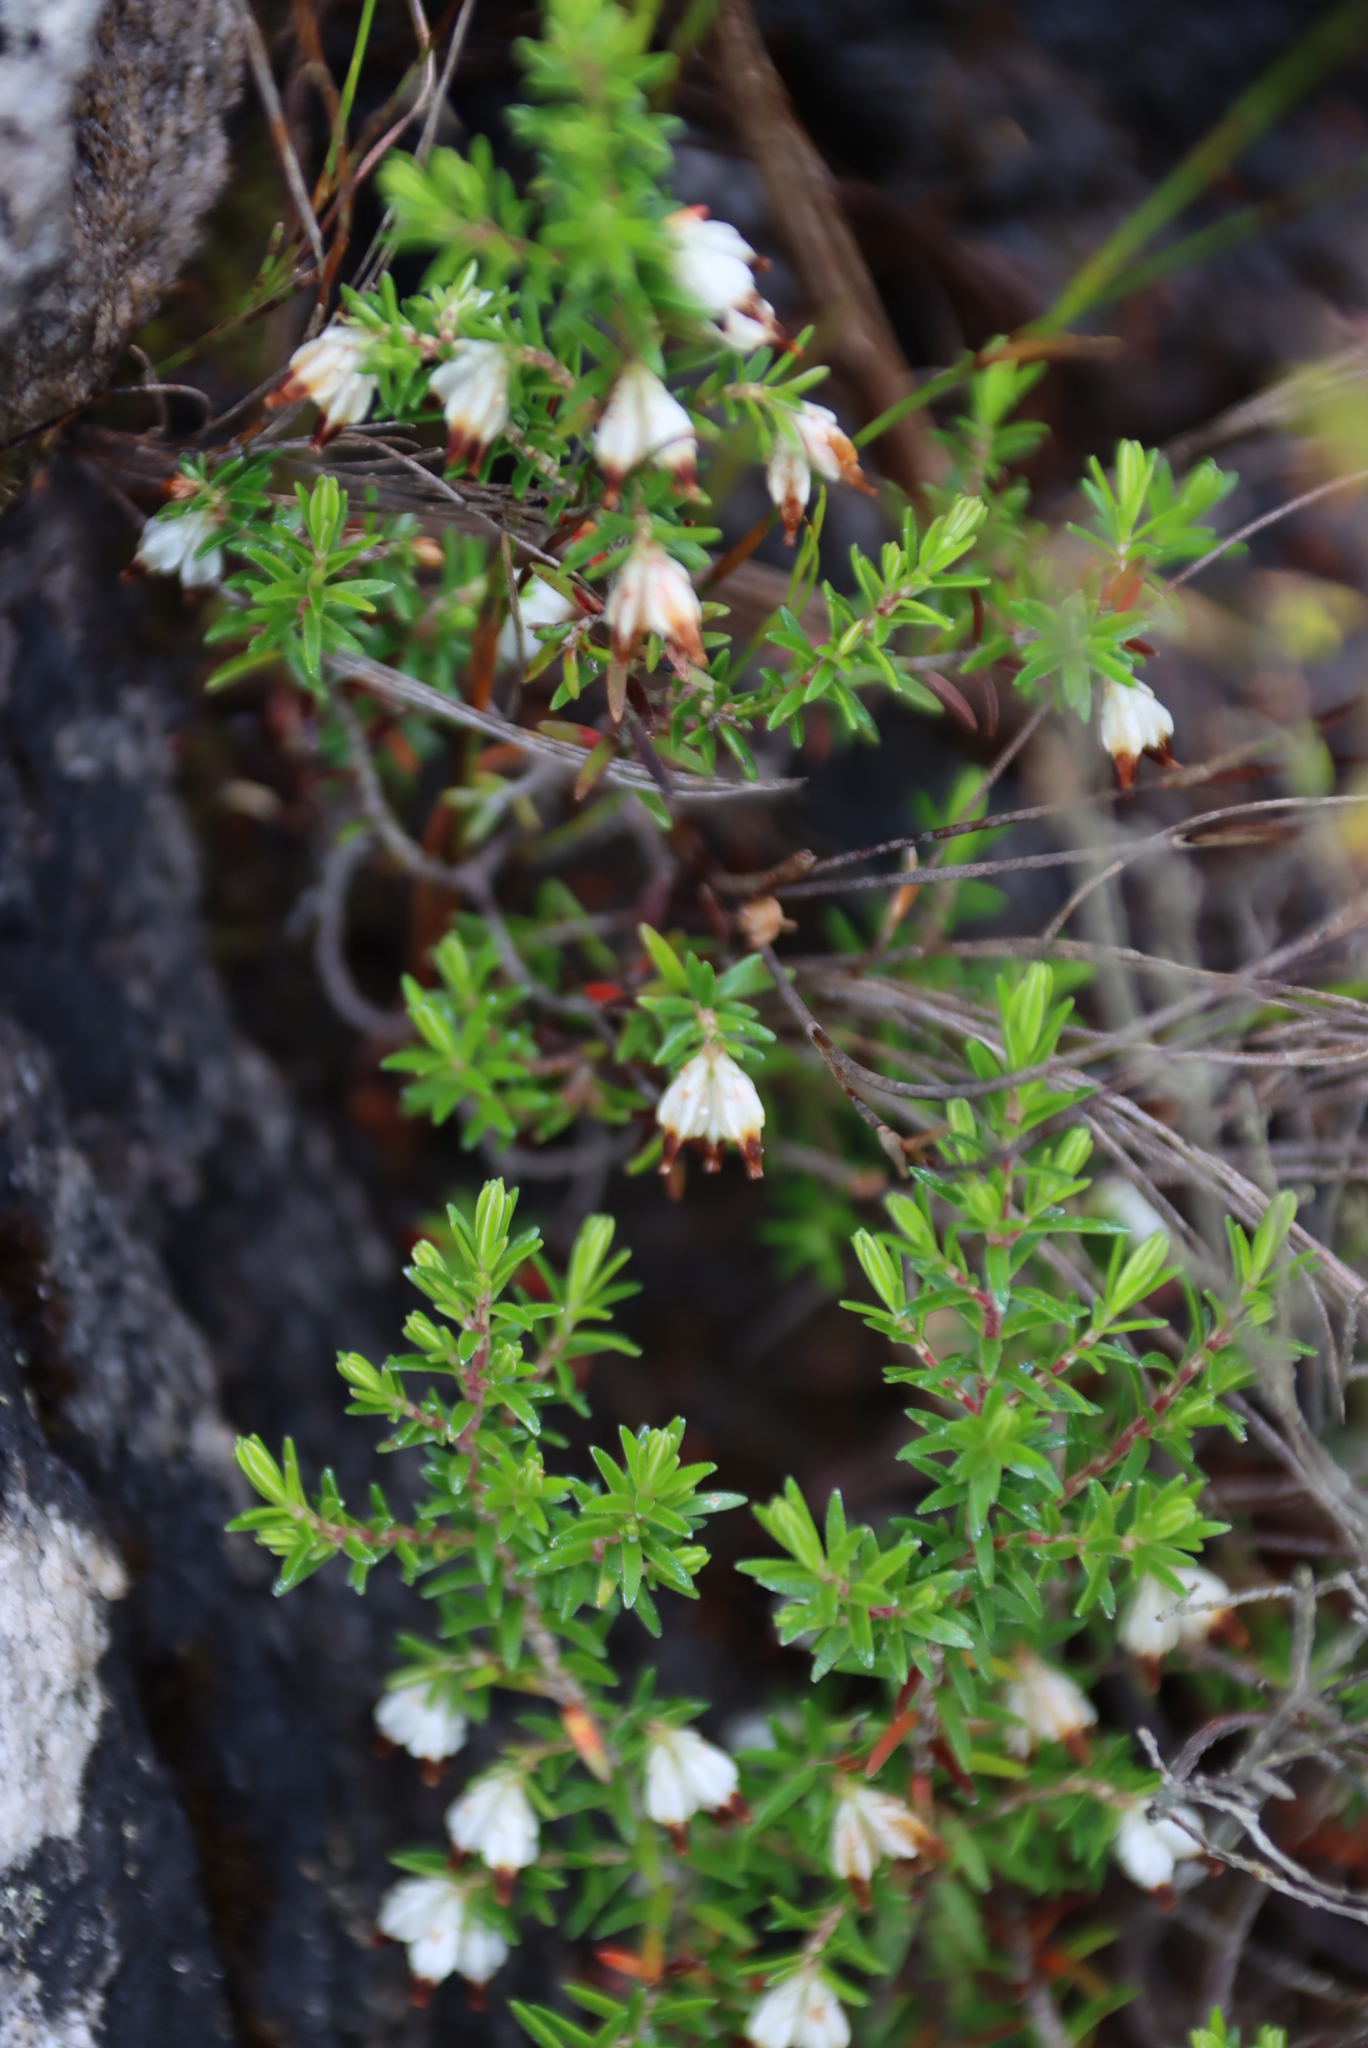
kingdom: Plantae
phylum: Tracheophyta
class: Magnoliopsida
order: Ericales
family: Ericaceae
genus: Erica
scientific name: Erica genistifolia
